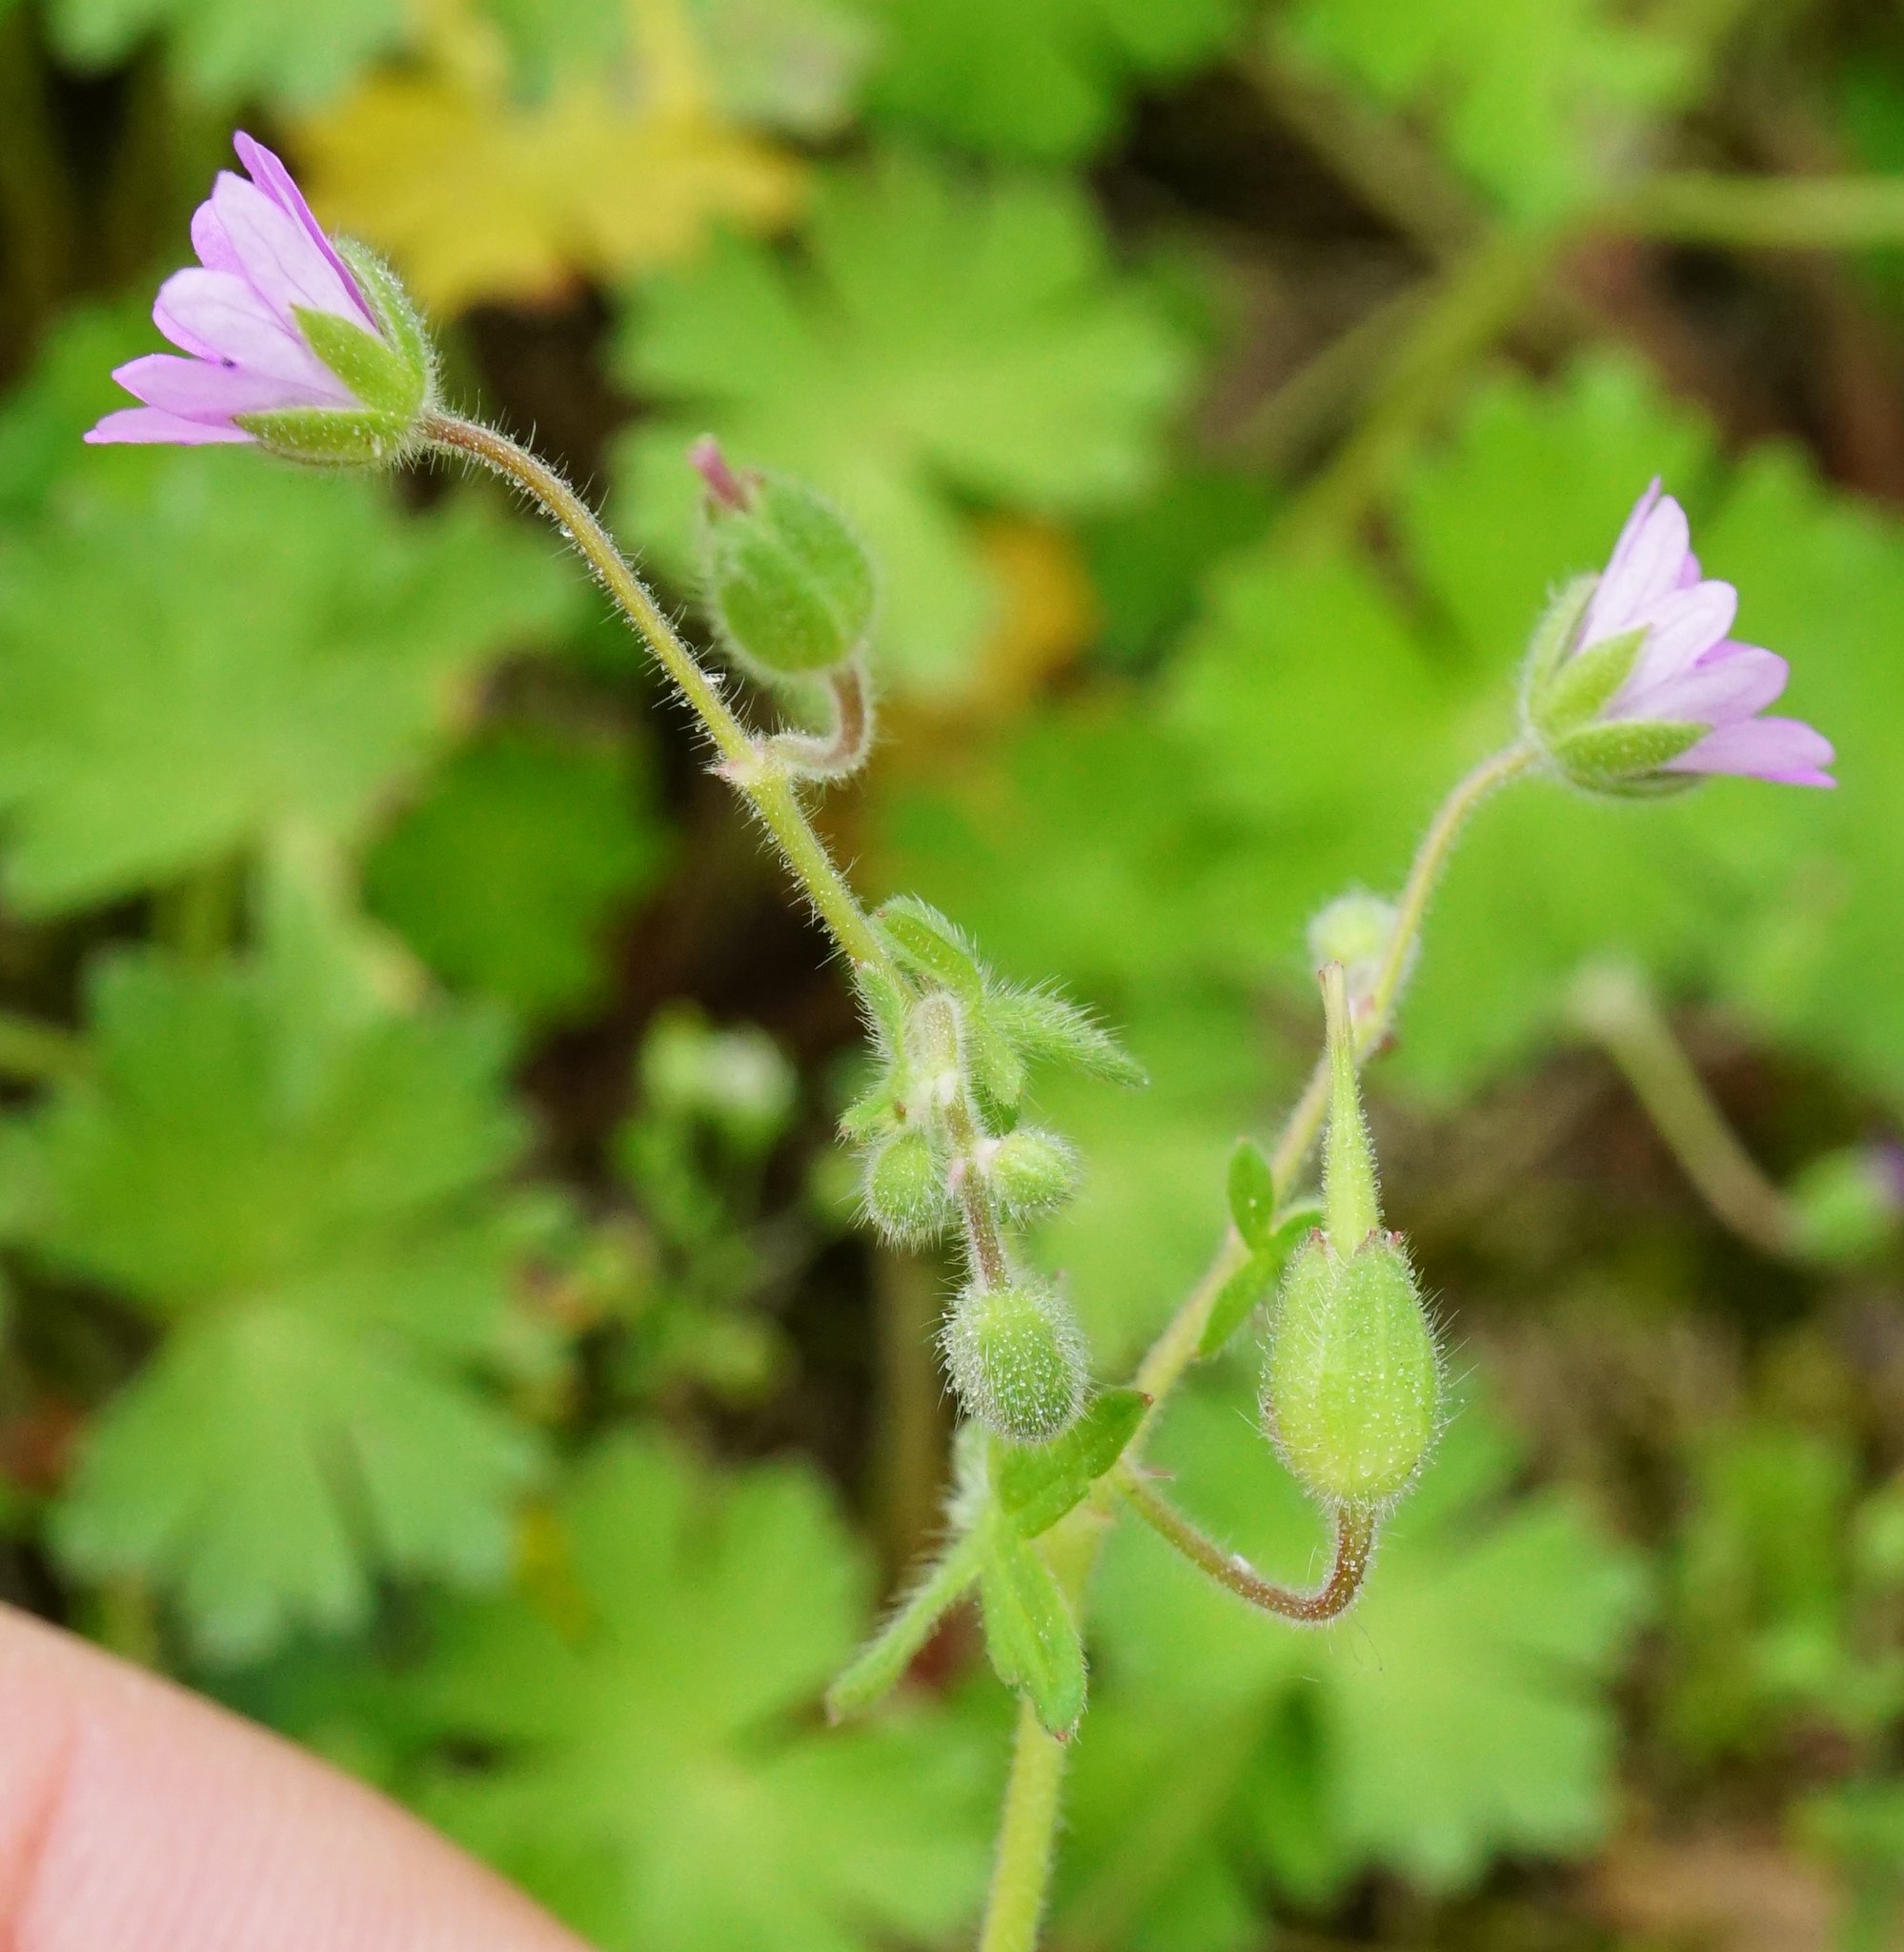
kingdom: Plantae
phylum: Tracheophyta
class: Magnoliopsida
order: Geraniales
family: Geraniaceae
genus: Geranium
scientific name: Geranium molle
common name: Dove's-foot crane's-bill
